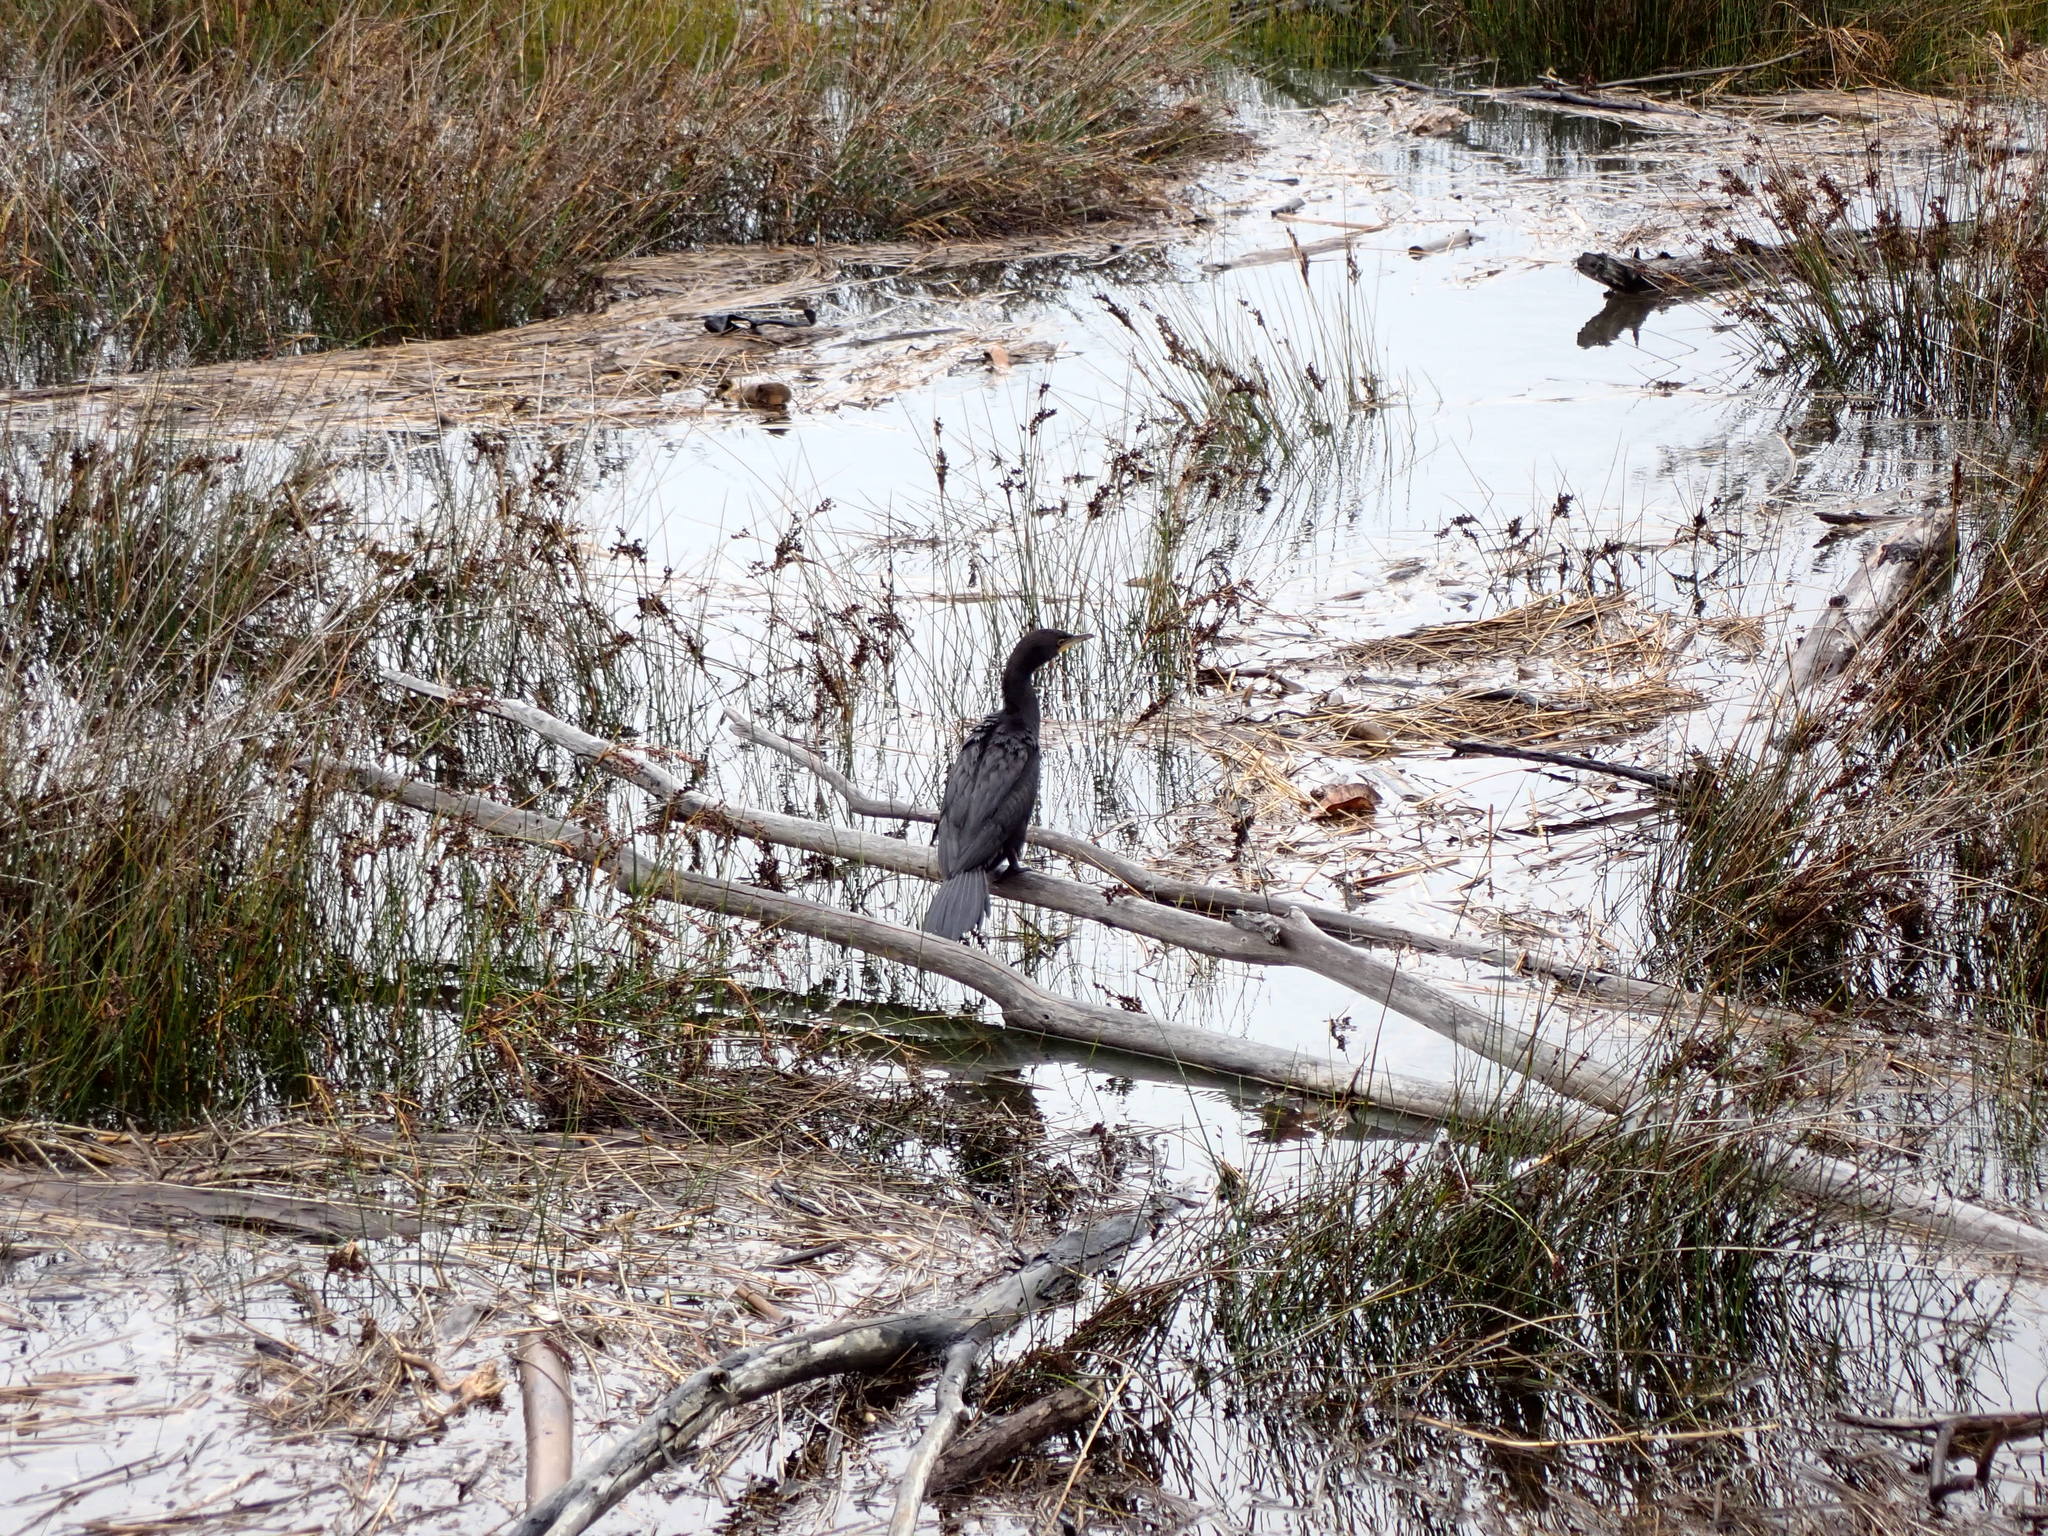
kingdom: Animalia
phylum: Chordata
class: Aves
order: Suliformes
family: Phalacrocoracidae
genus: Microcarbo
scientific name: Microcarbo melanoleucos
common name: Little pied cormorant
